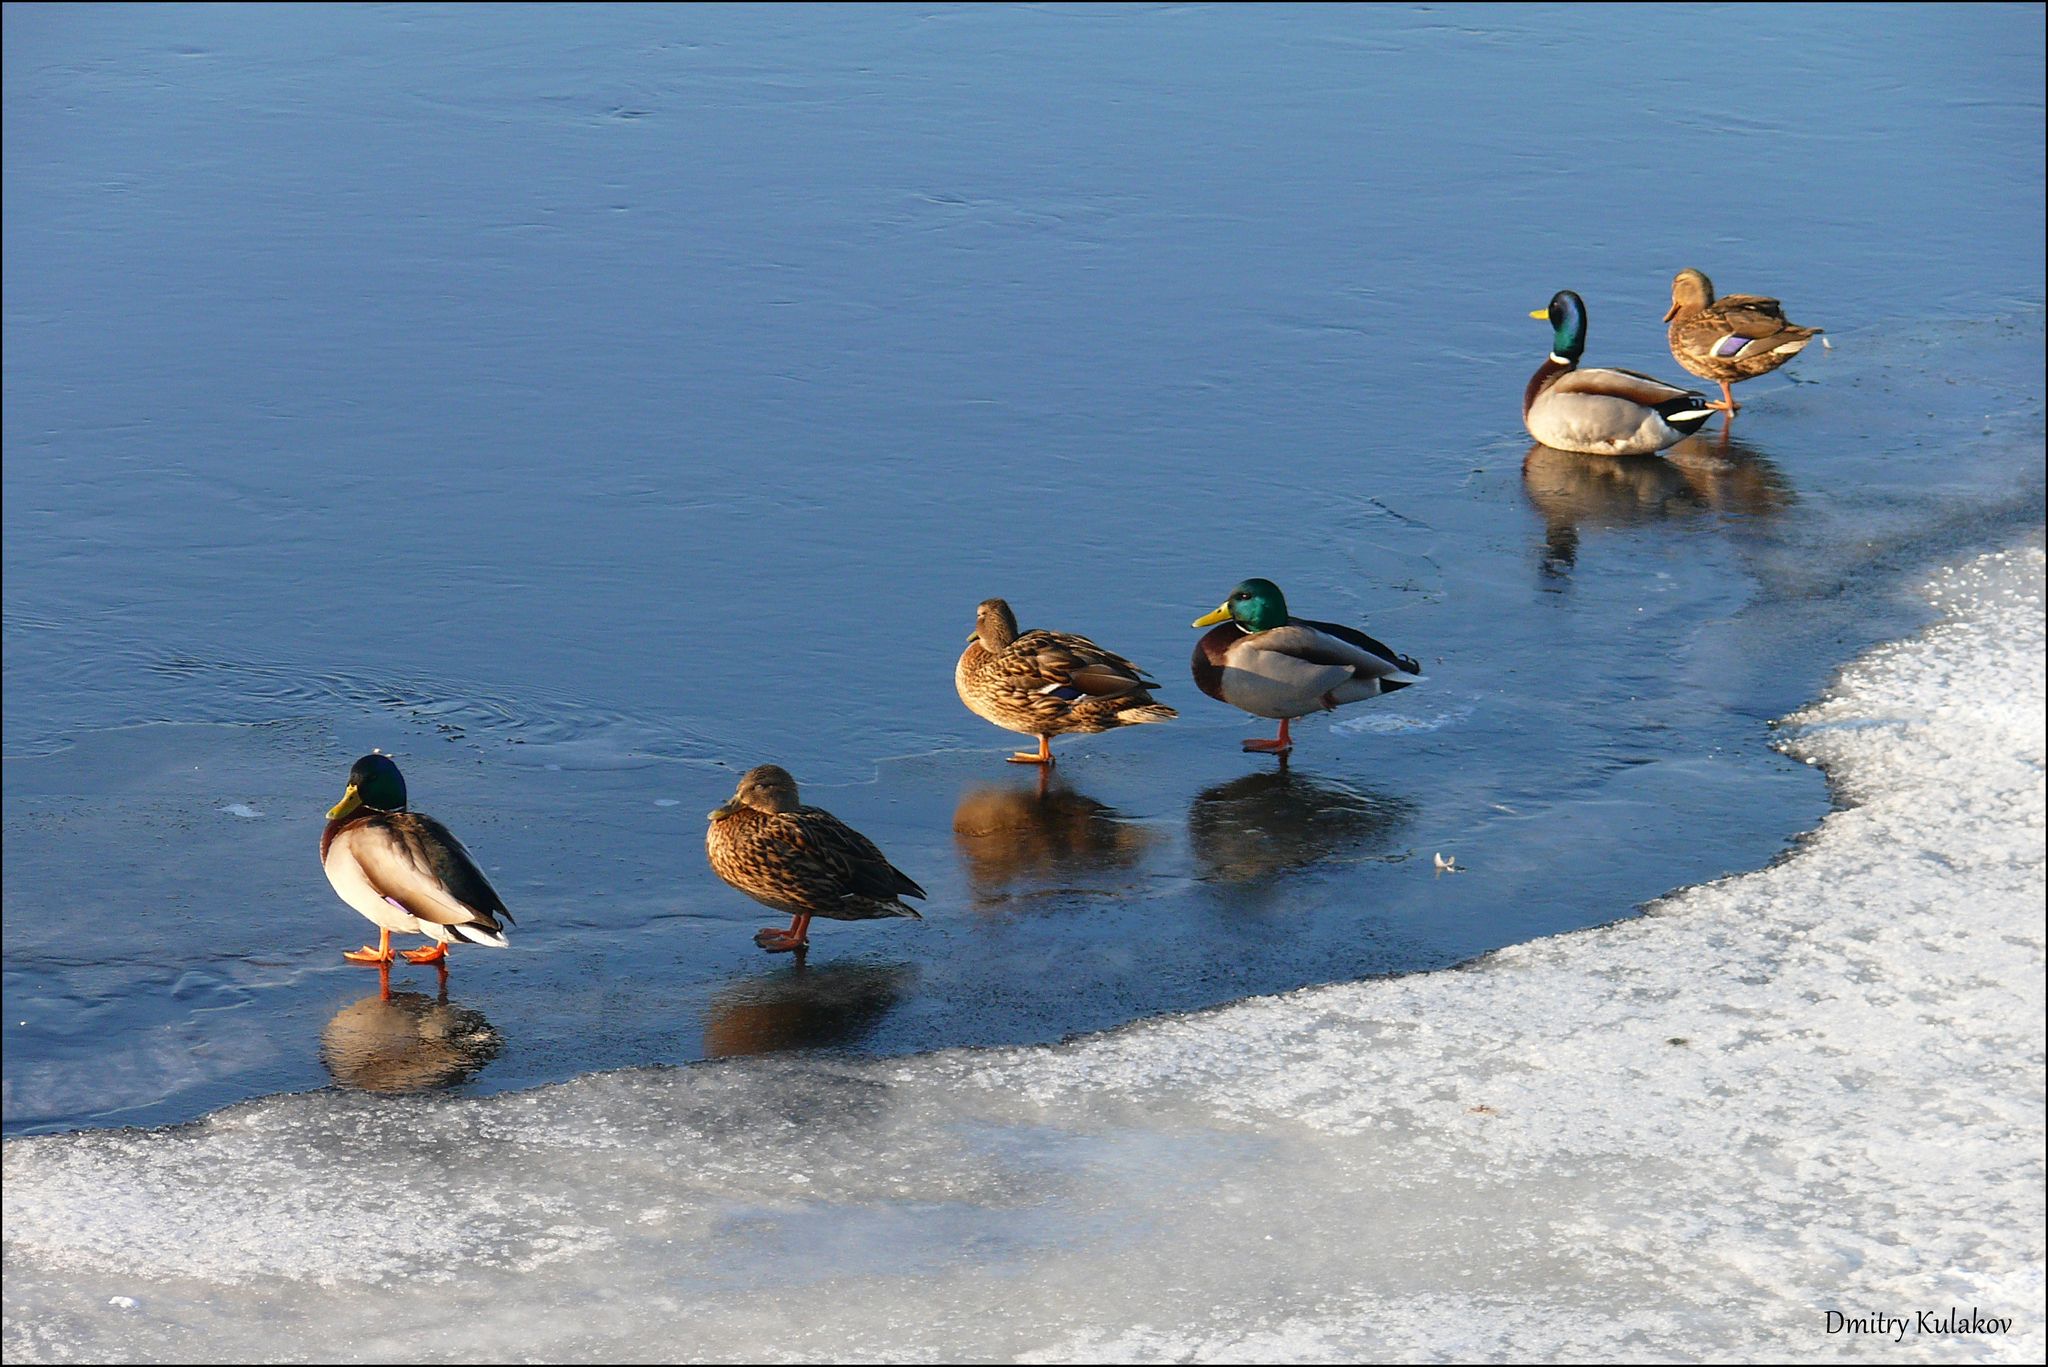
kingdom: Animalia
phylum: Chordata
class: Aves
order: Anseriformes
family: Anatidae
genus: Anas
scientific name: Anas platyrhynchos
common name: Mallard
